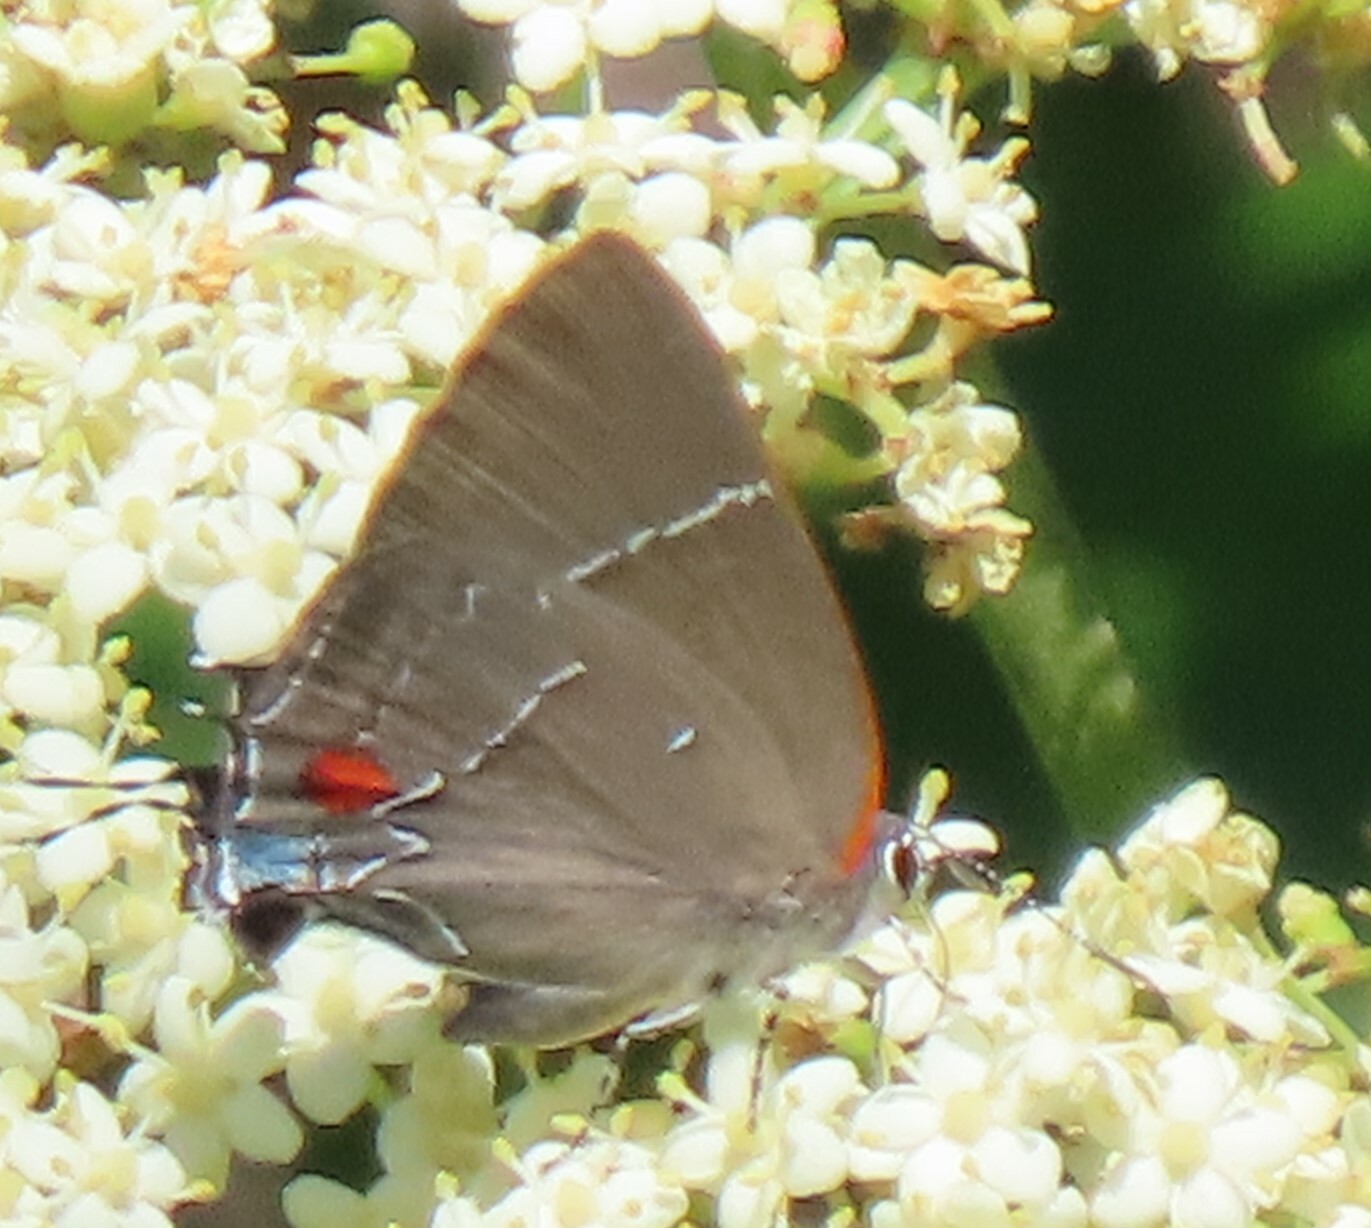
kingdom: Animalia
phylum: Arthropoda
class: Insecta
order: Lepidoptera
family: Lycaenidae
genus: Parrhasius
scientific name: Parrhasius m-album
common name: White m hairstreak
